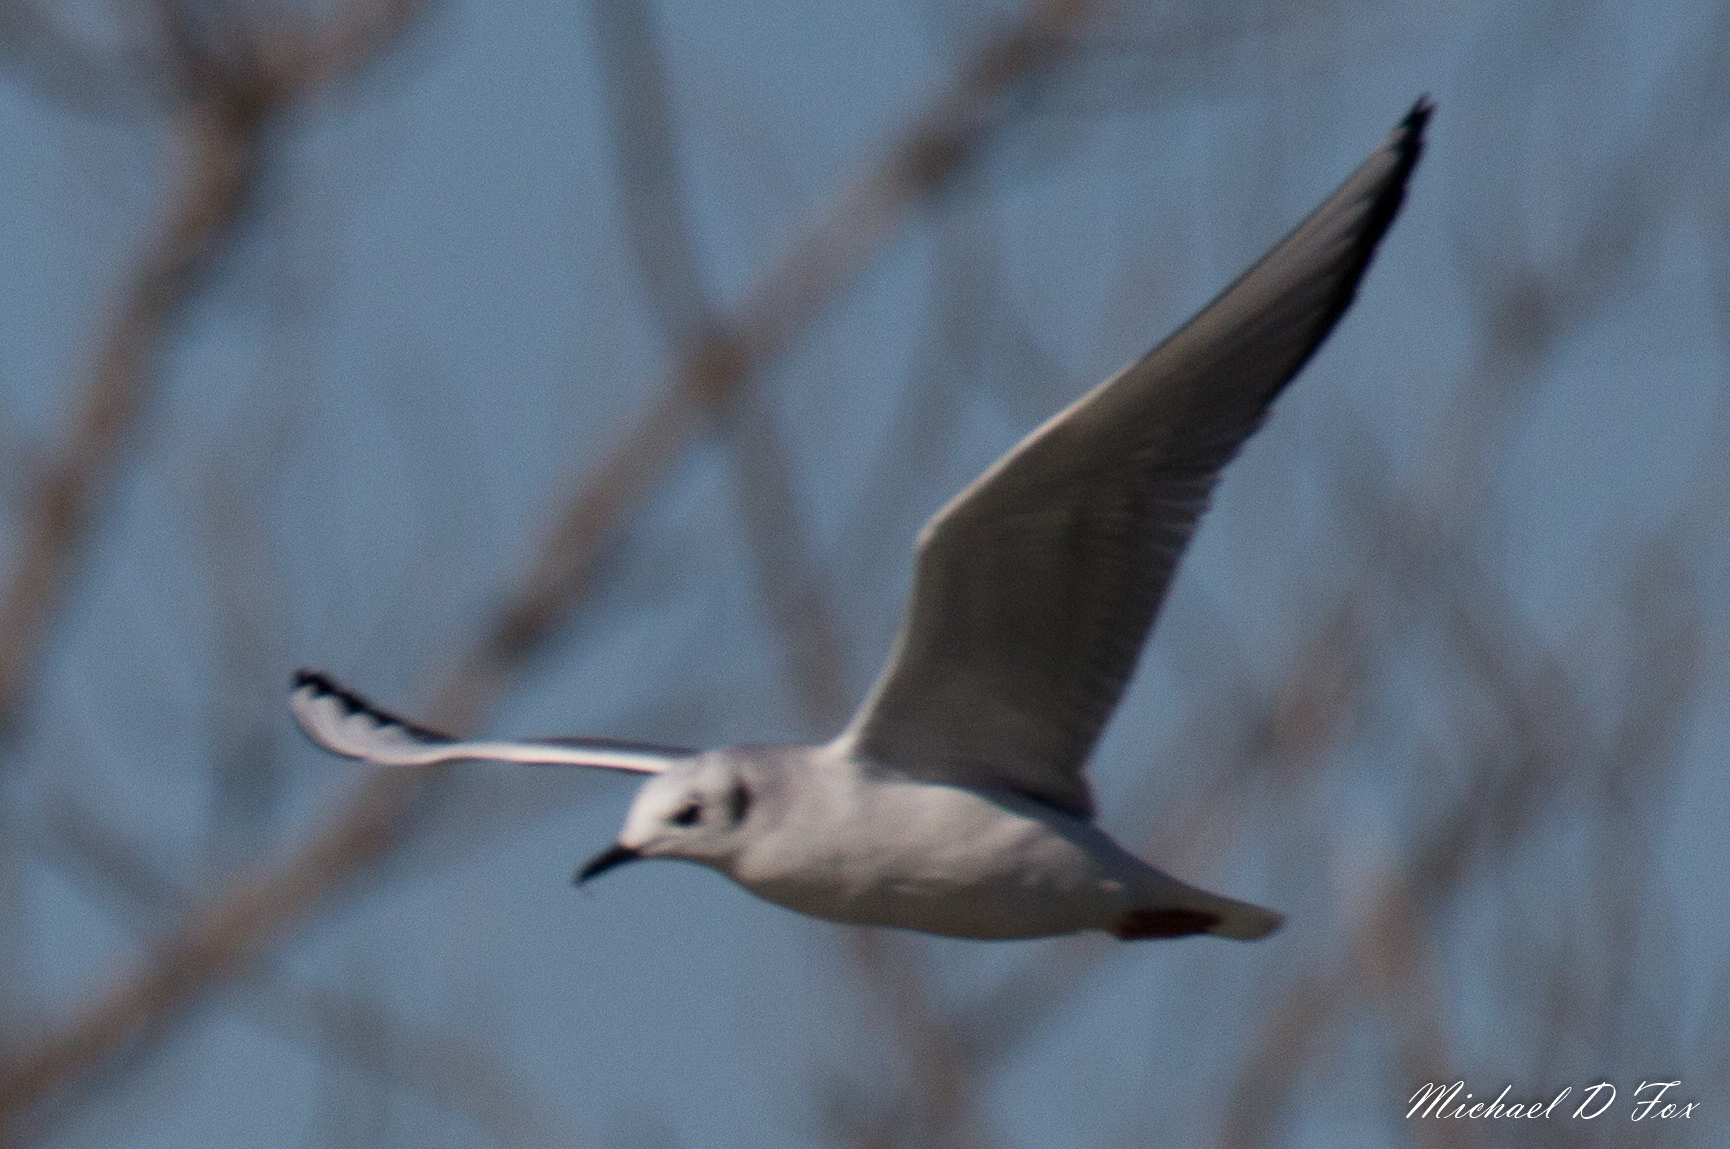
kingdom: Animalia
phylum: Chordata
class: Aves
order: Charadriiformes
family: Laridae
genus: Chroicocephalus
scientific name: Chroicocephalus philadelphia
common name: Bonaparte's gull
